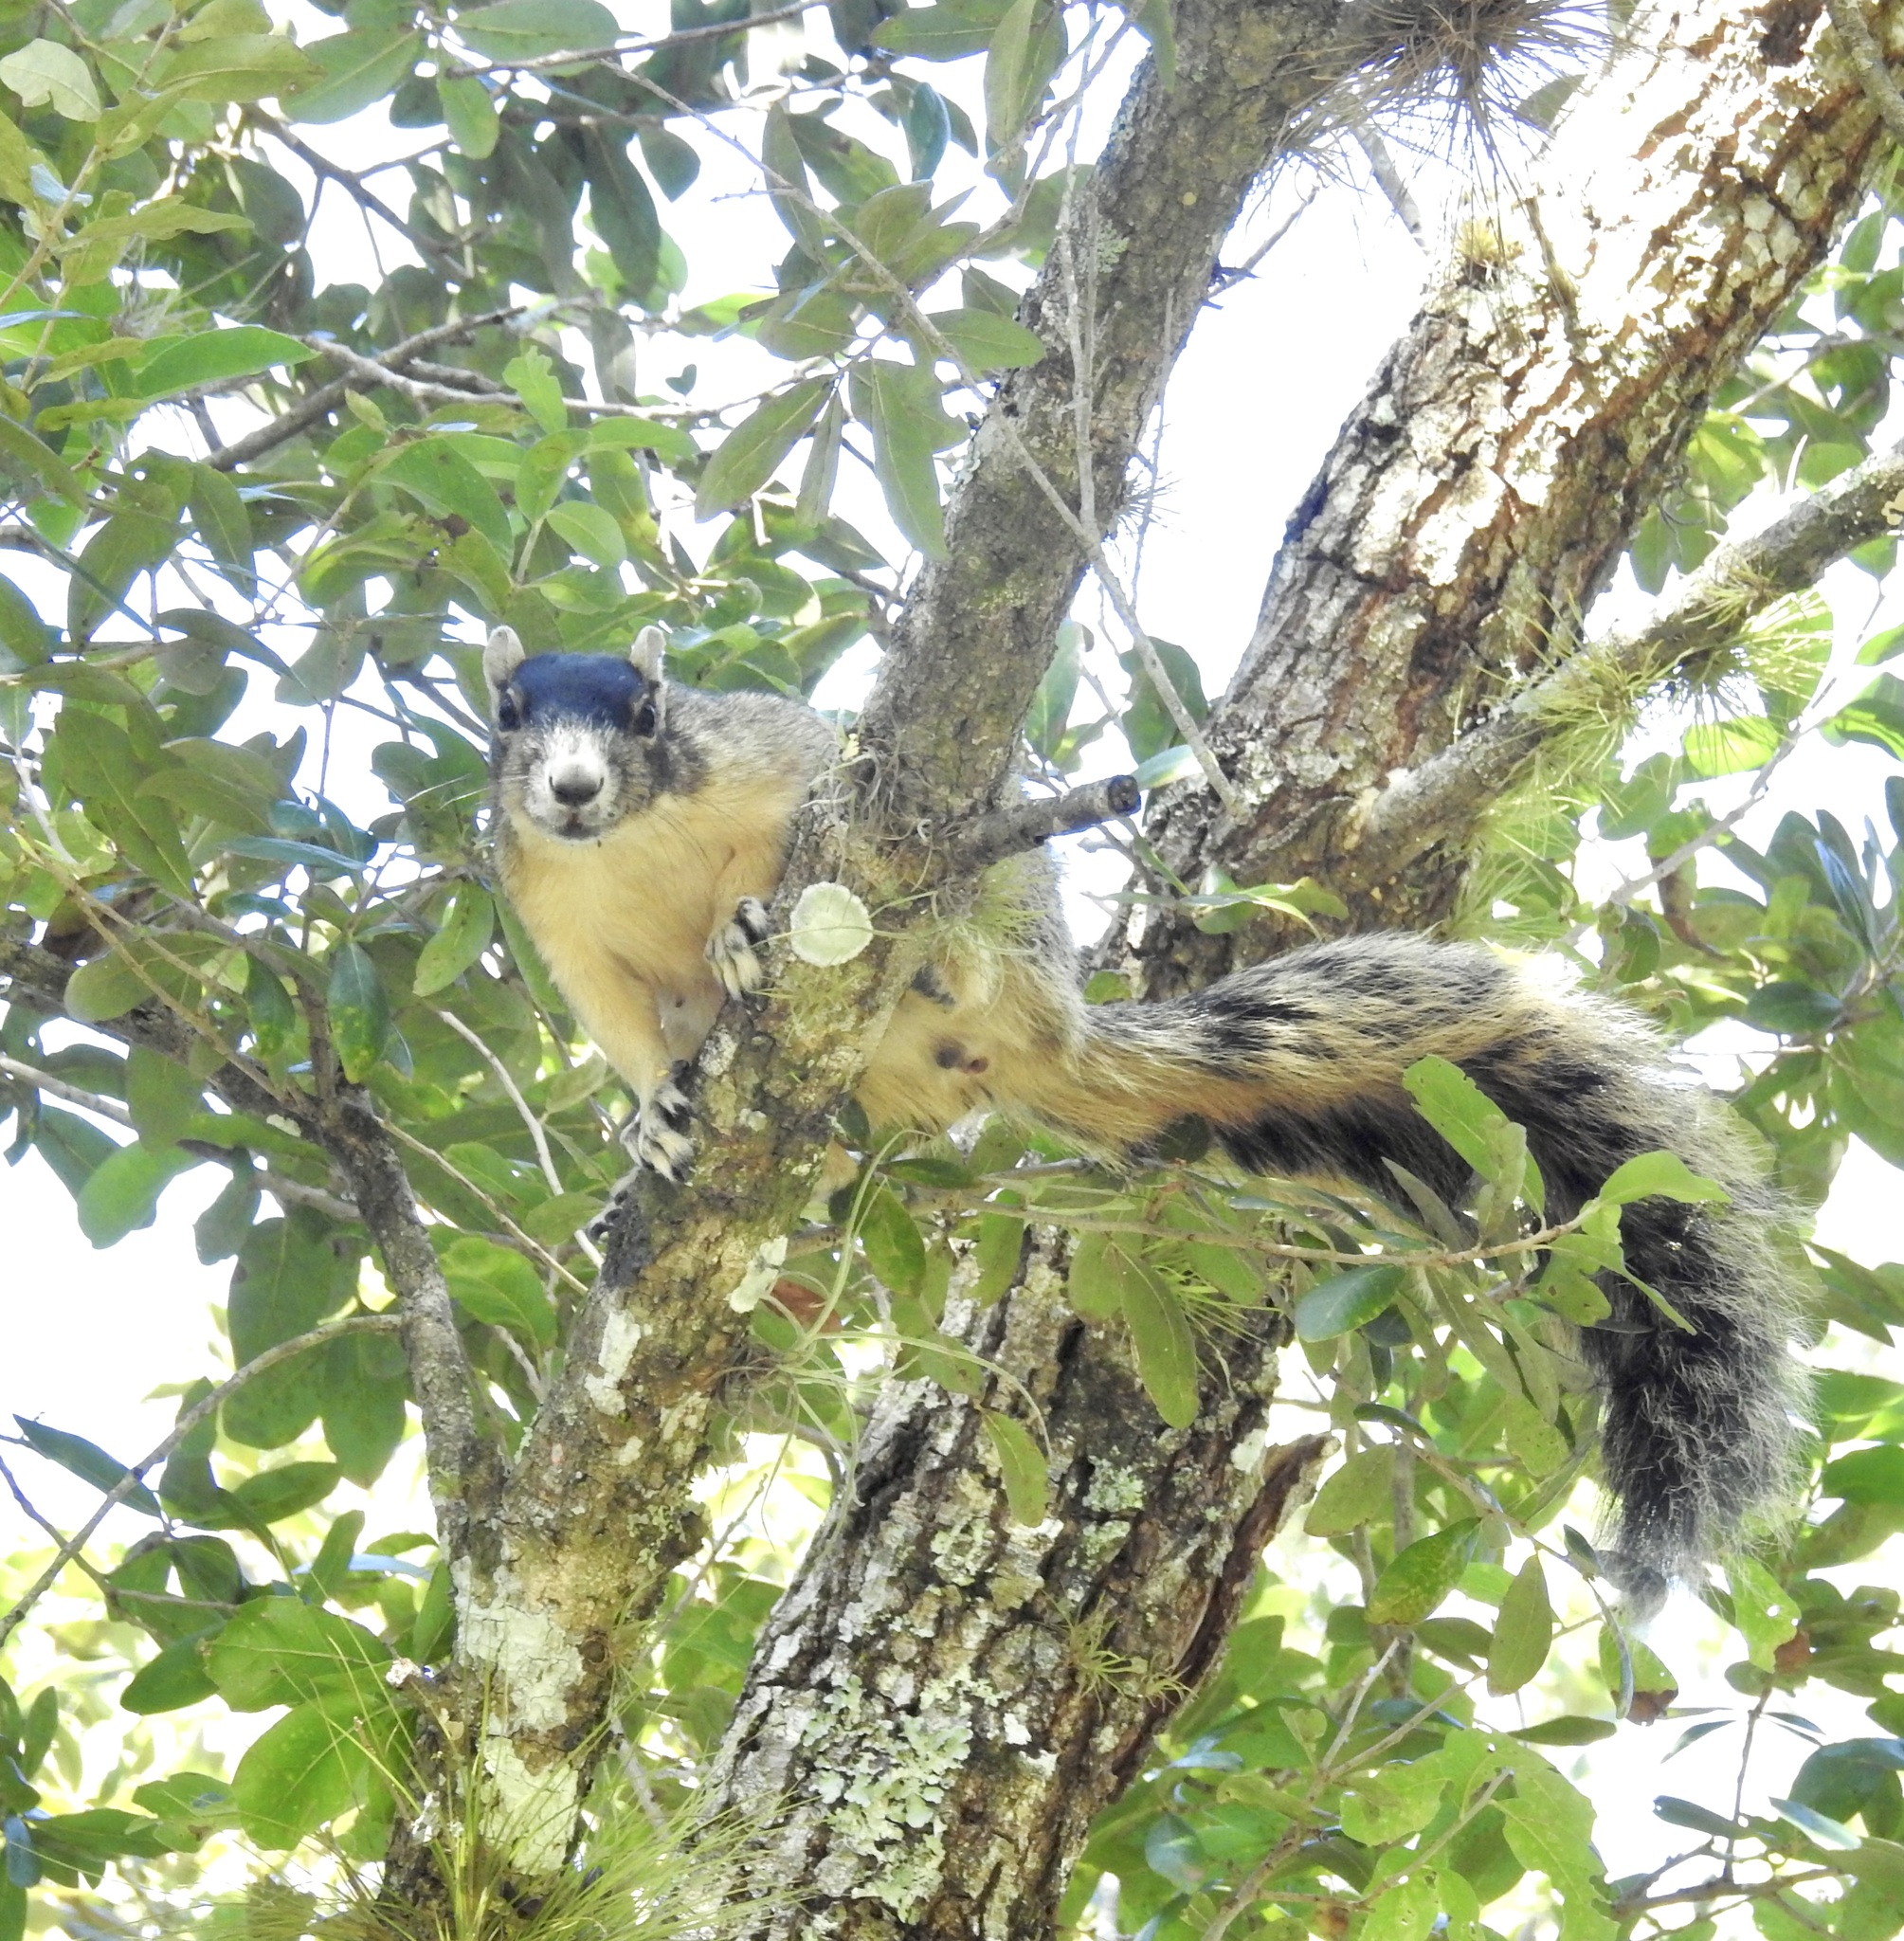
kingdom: Animalia
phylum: Chordata
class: Mammalia
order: Rodentia
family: Sciuridae
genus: Sciurus
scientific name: Sciurus niger
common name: Fox squirrel
